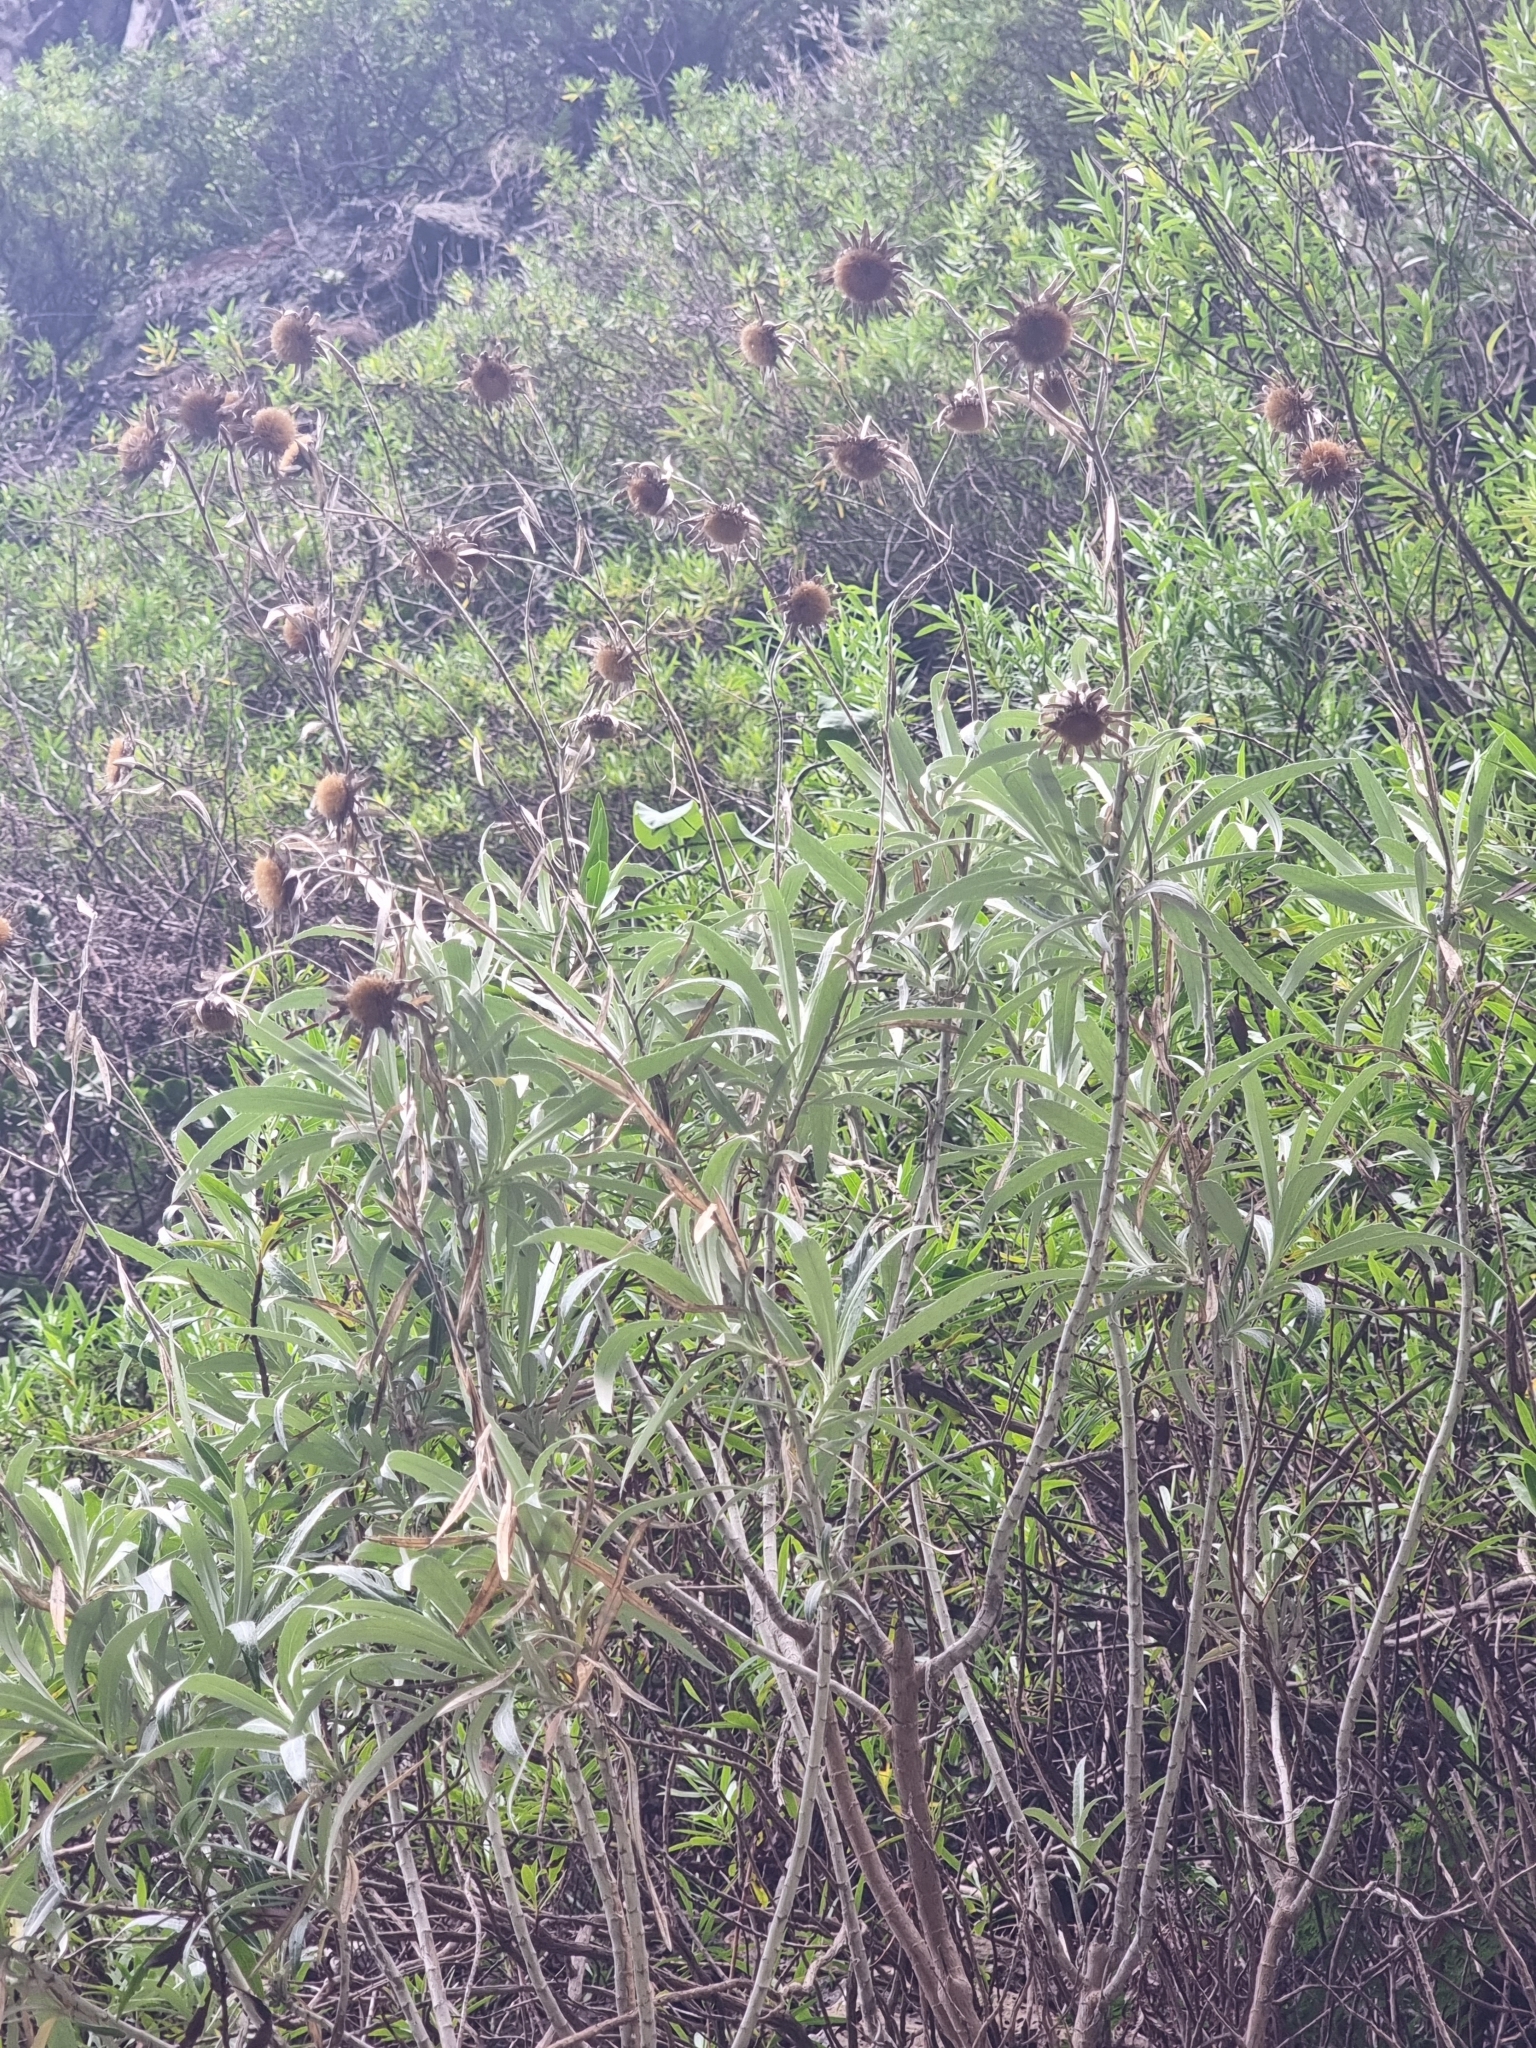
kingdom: Plantae
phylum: Tracheophyta
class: Magnoliopsida
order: Asterales
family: Asteraceae
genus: Carlina
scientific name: Carlina salicifolia
